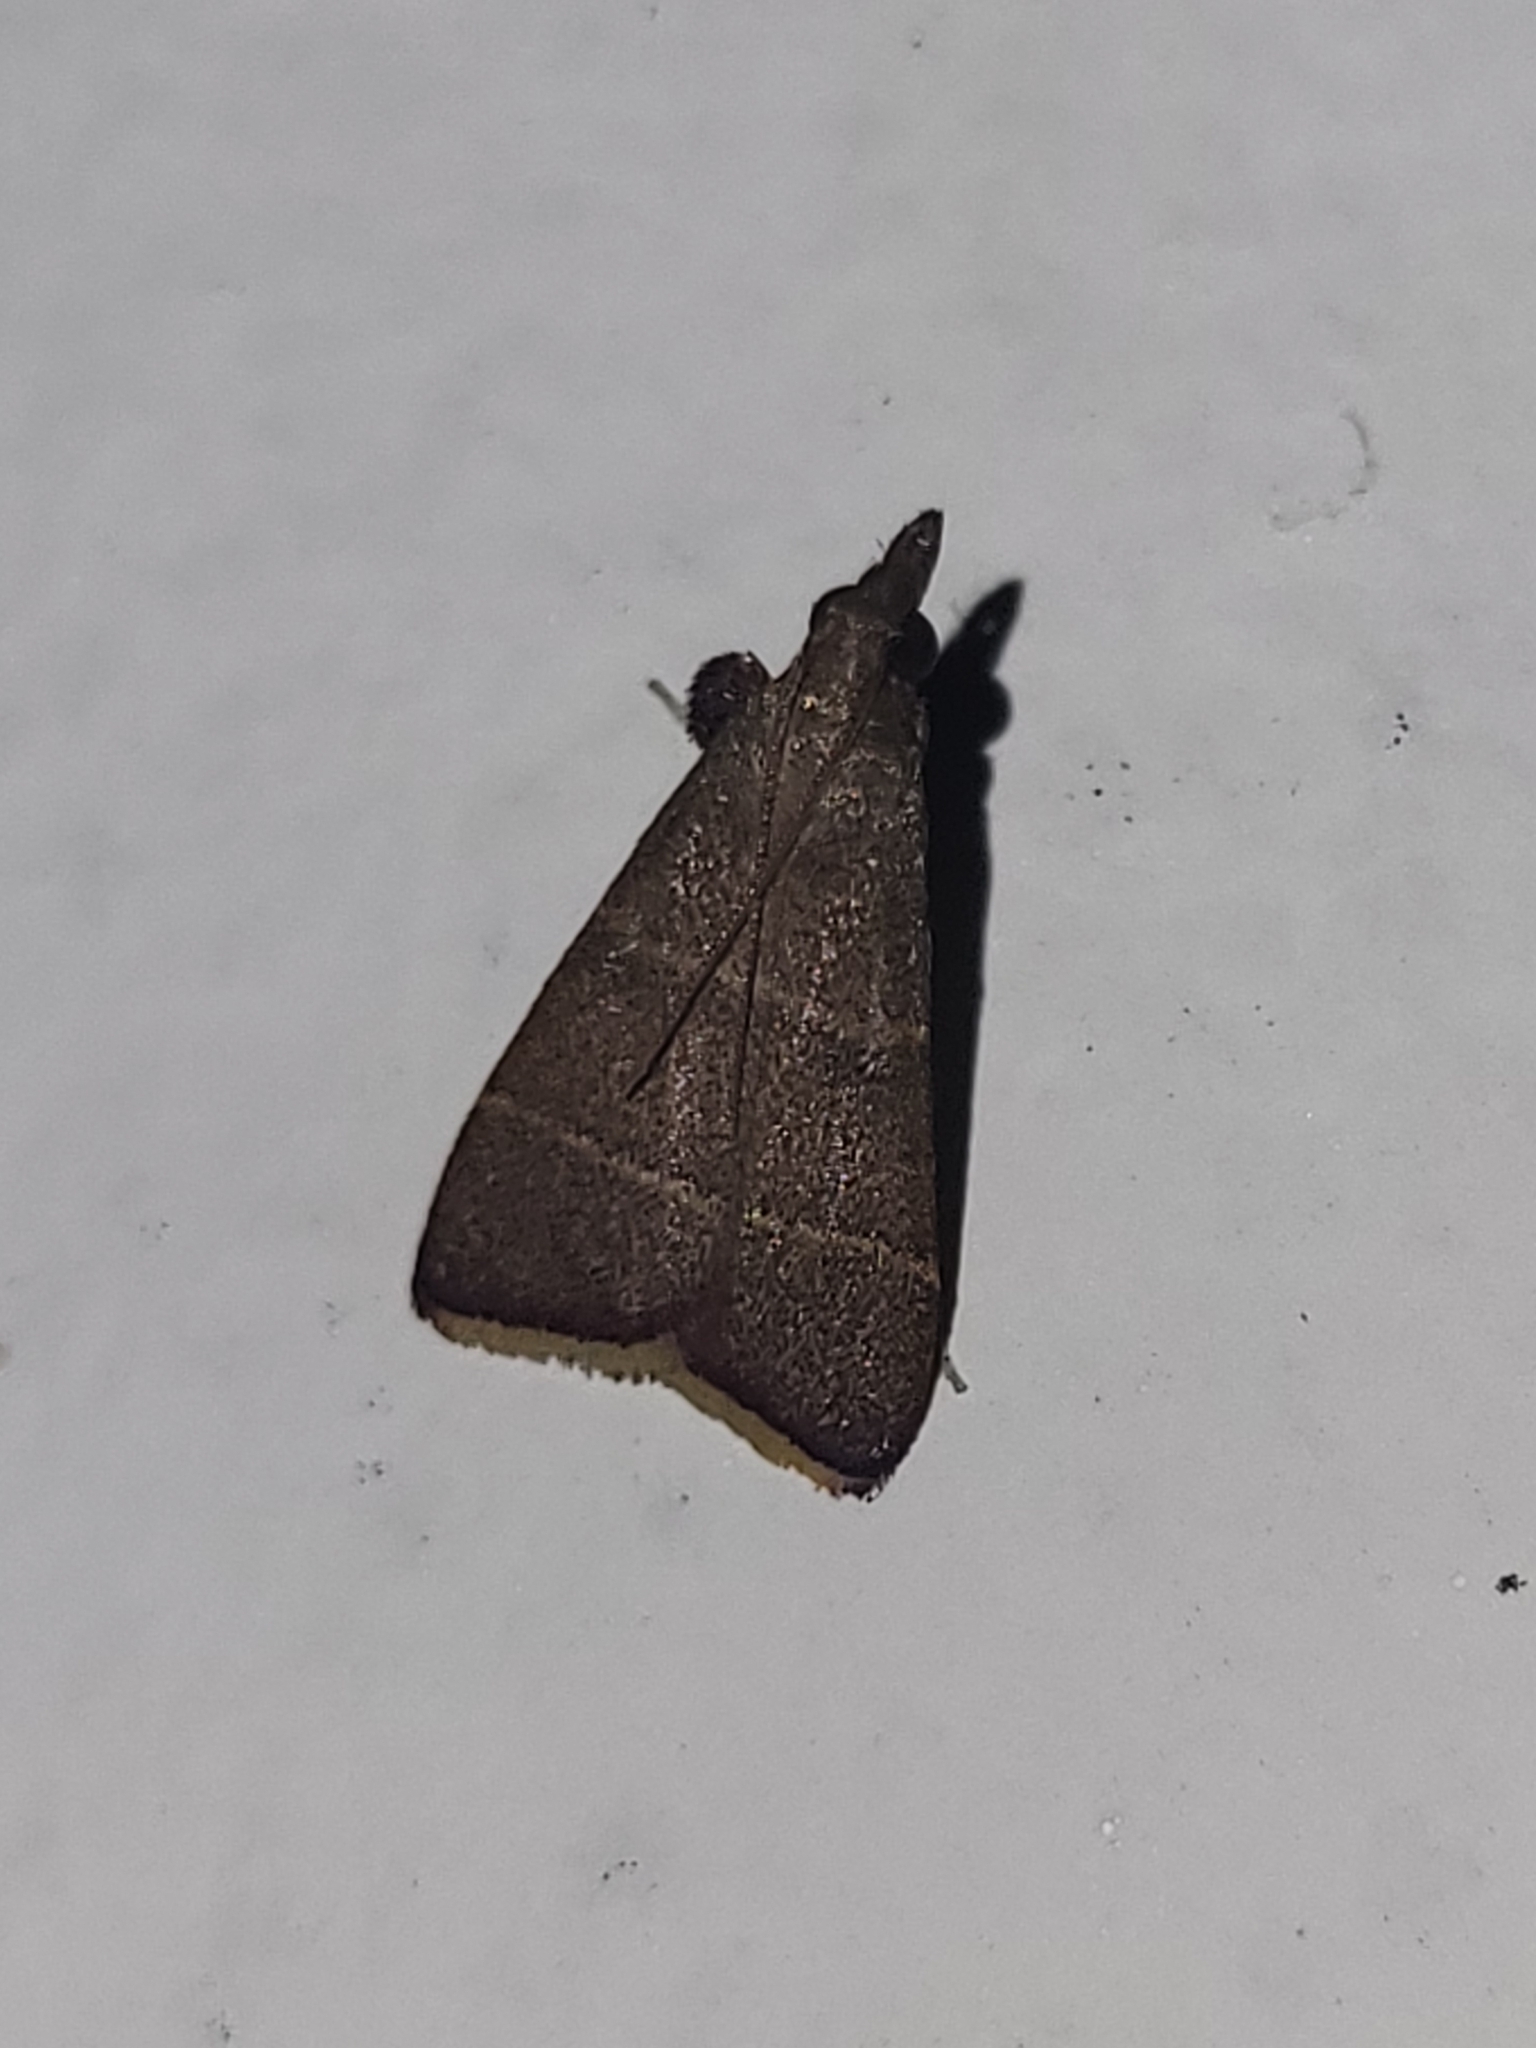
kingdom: Animalia
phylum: Arthropoda
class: Insecta
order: Lepidoptera
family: Pyralidae
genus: Parachma
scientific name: Parachma lequettealis
